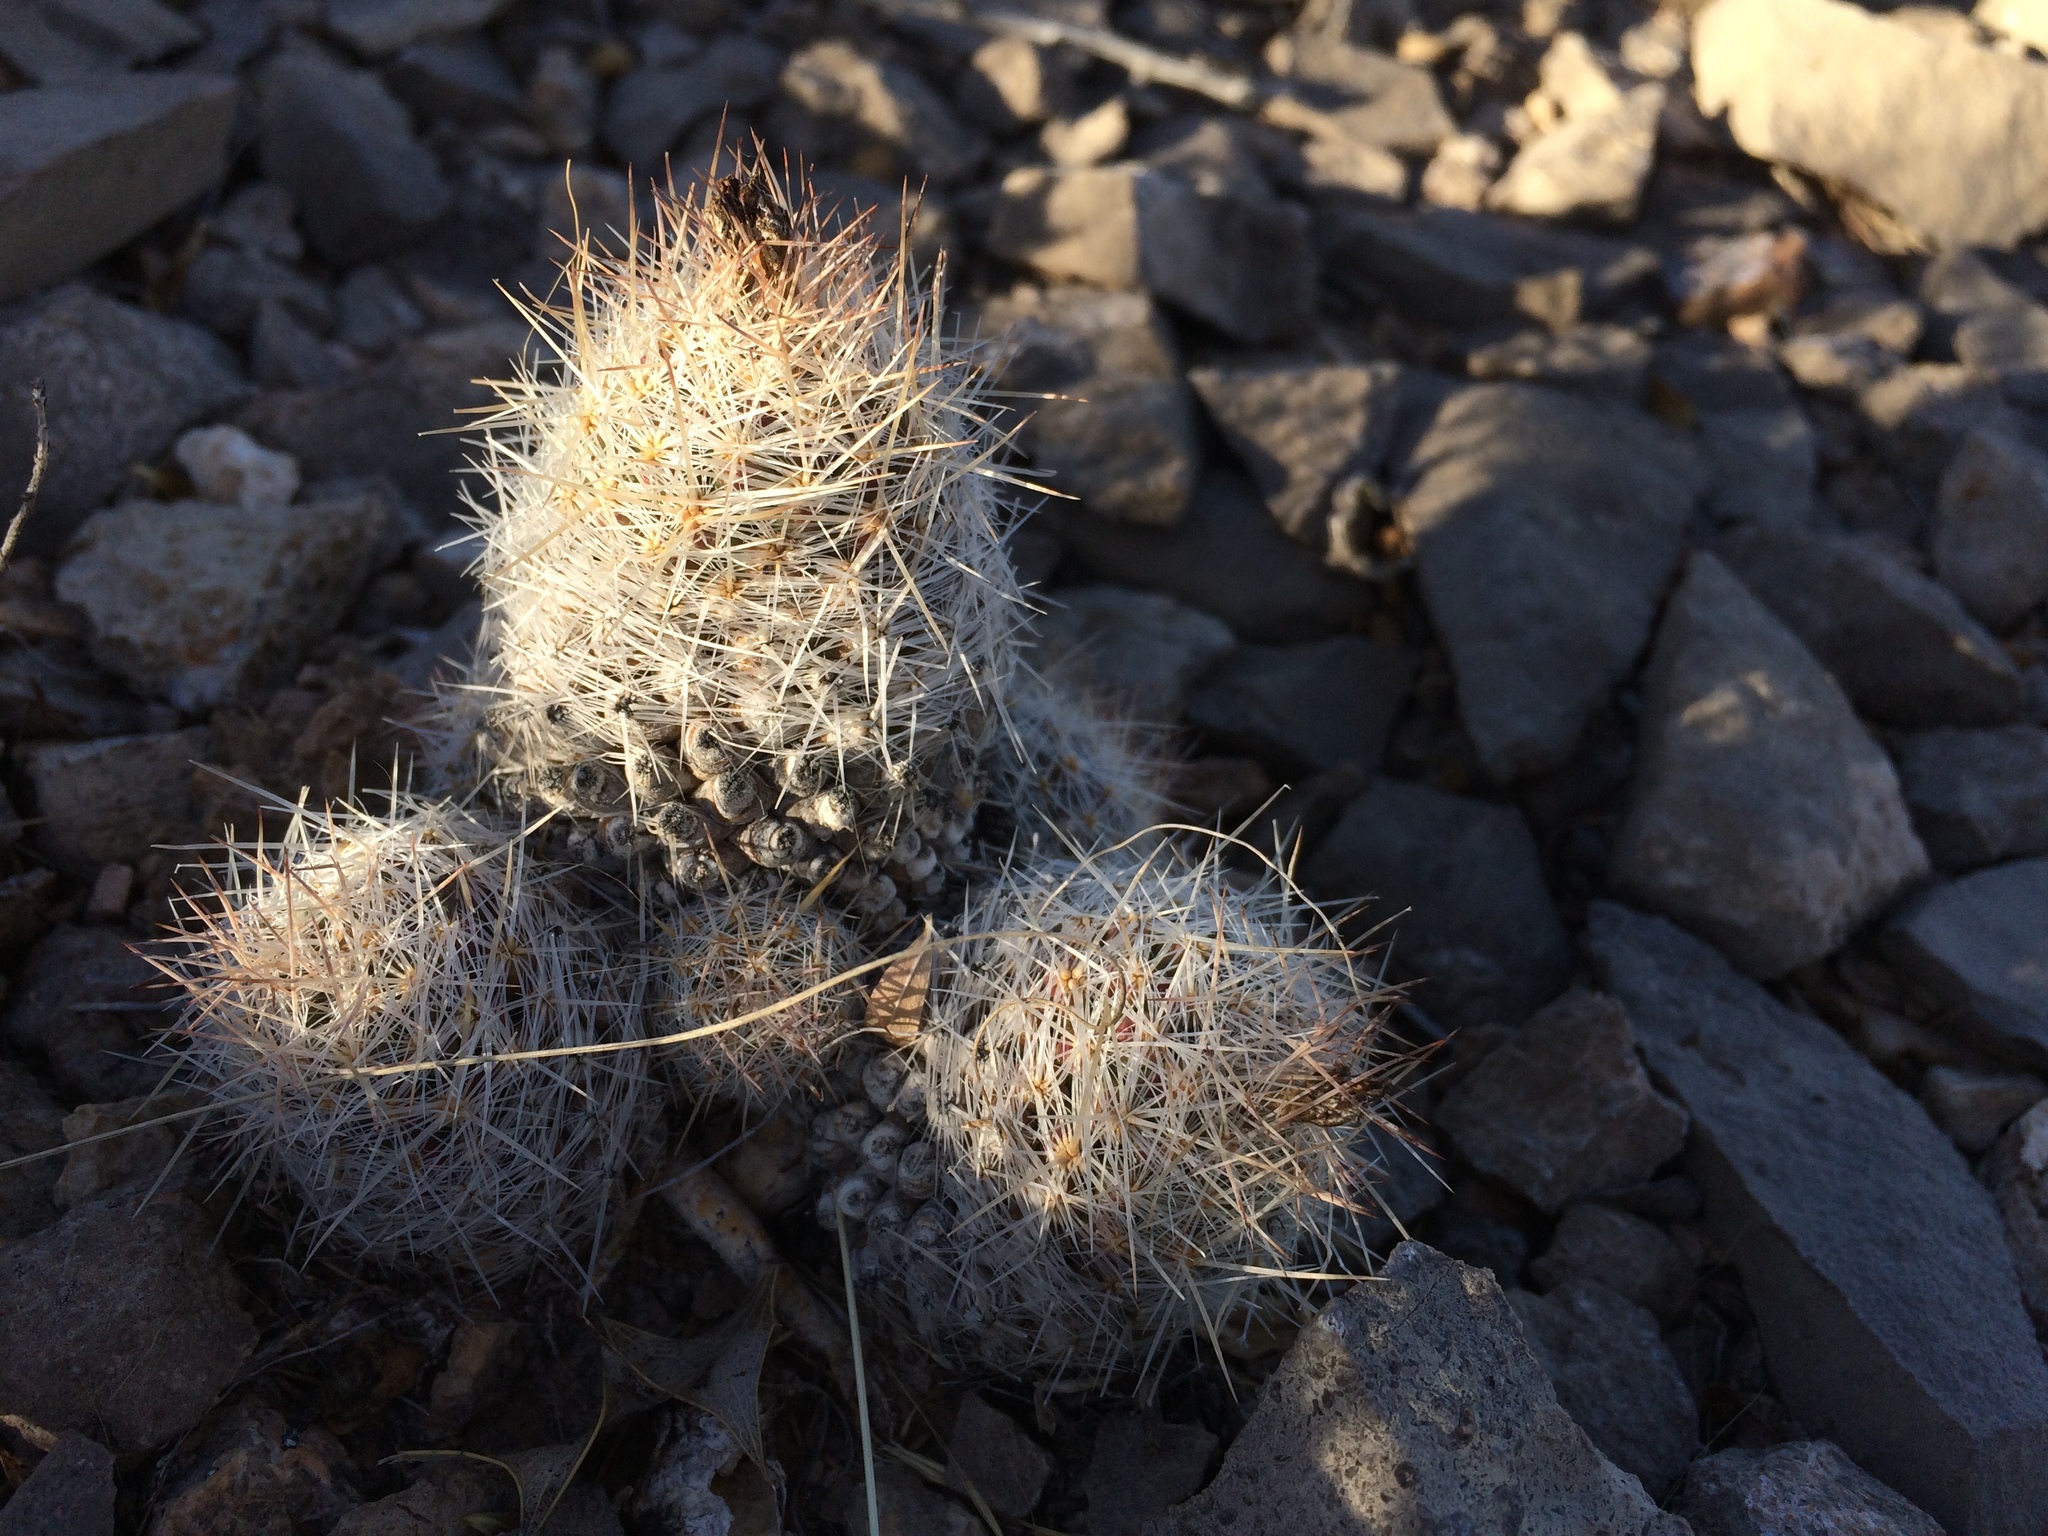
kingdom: Plantae
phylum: Tracheophyta
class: Magnoliopsida
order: Caryophyllales
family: Cactaceae
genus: Pelecyphora
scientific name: Pelecyphora tuberculosa
